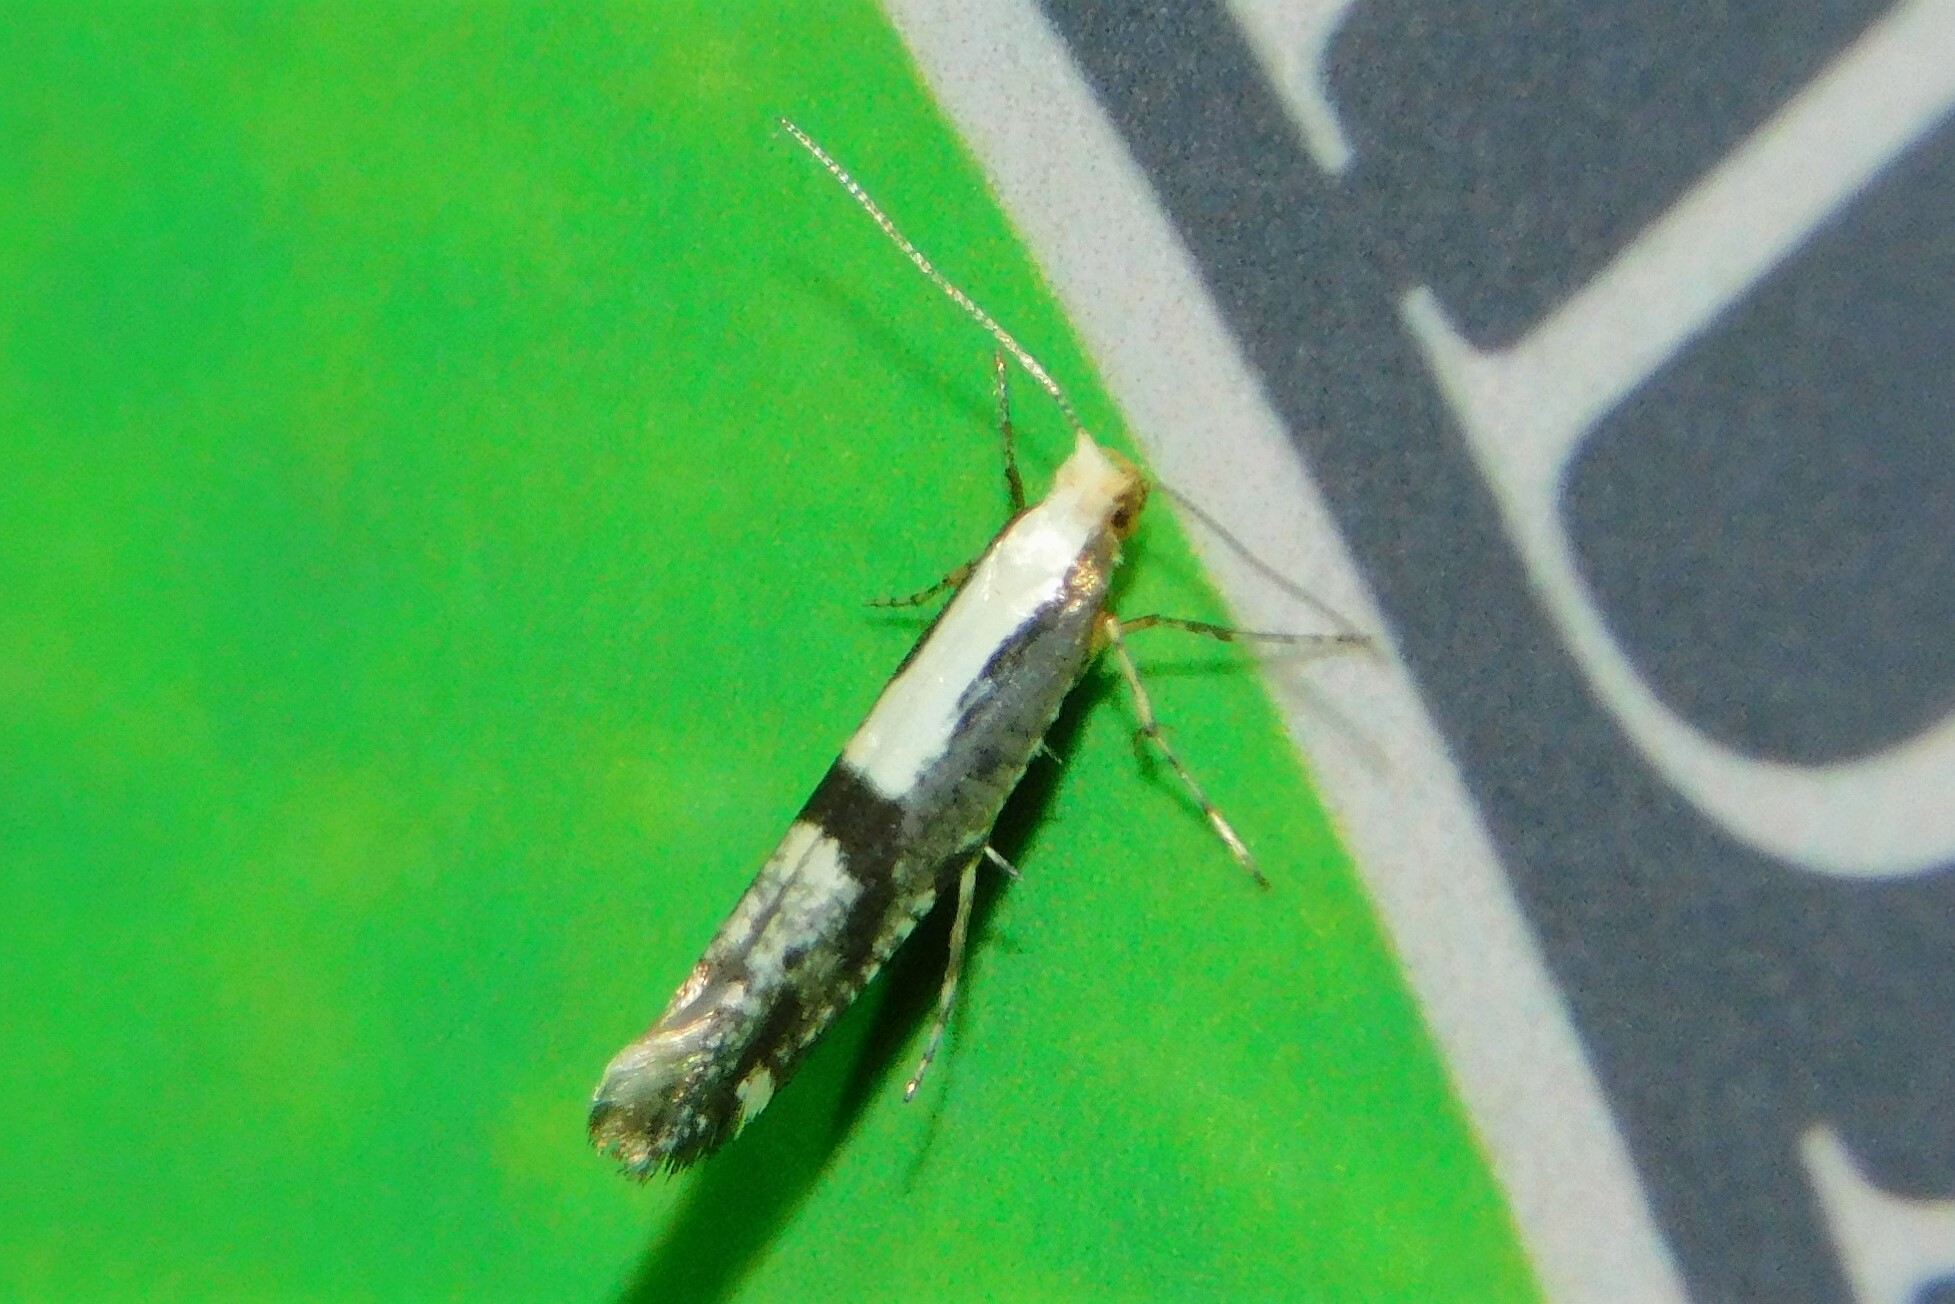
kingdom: Animalia
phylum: Arthropoda
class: Insecta
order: Lepidoptera
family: Argyresthiidae
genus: Argyresthia
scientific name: Argyresthia conjugella
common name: Apple fruit moth
